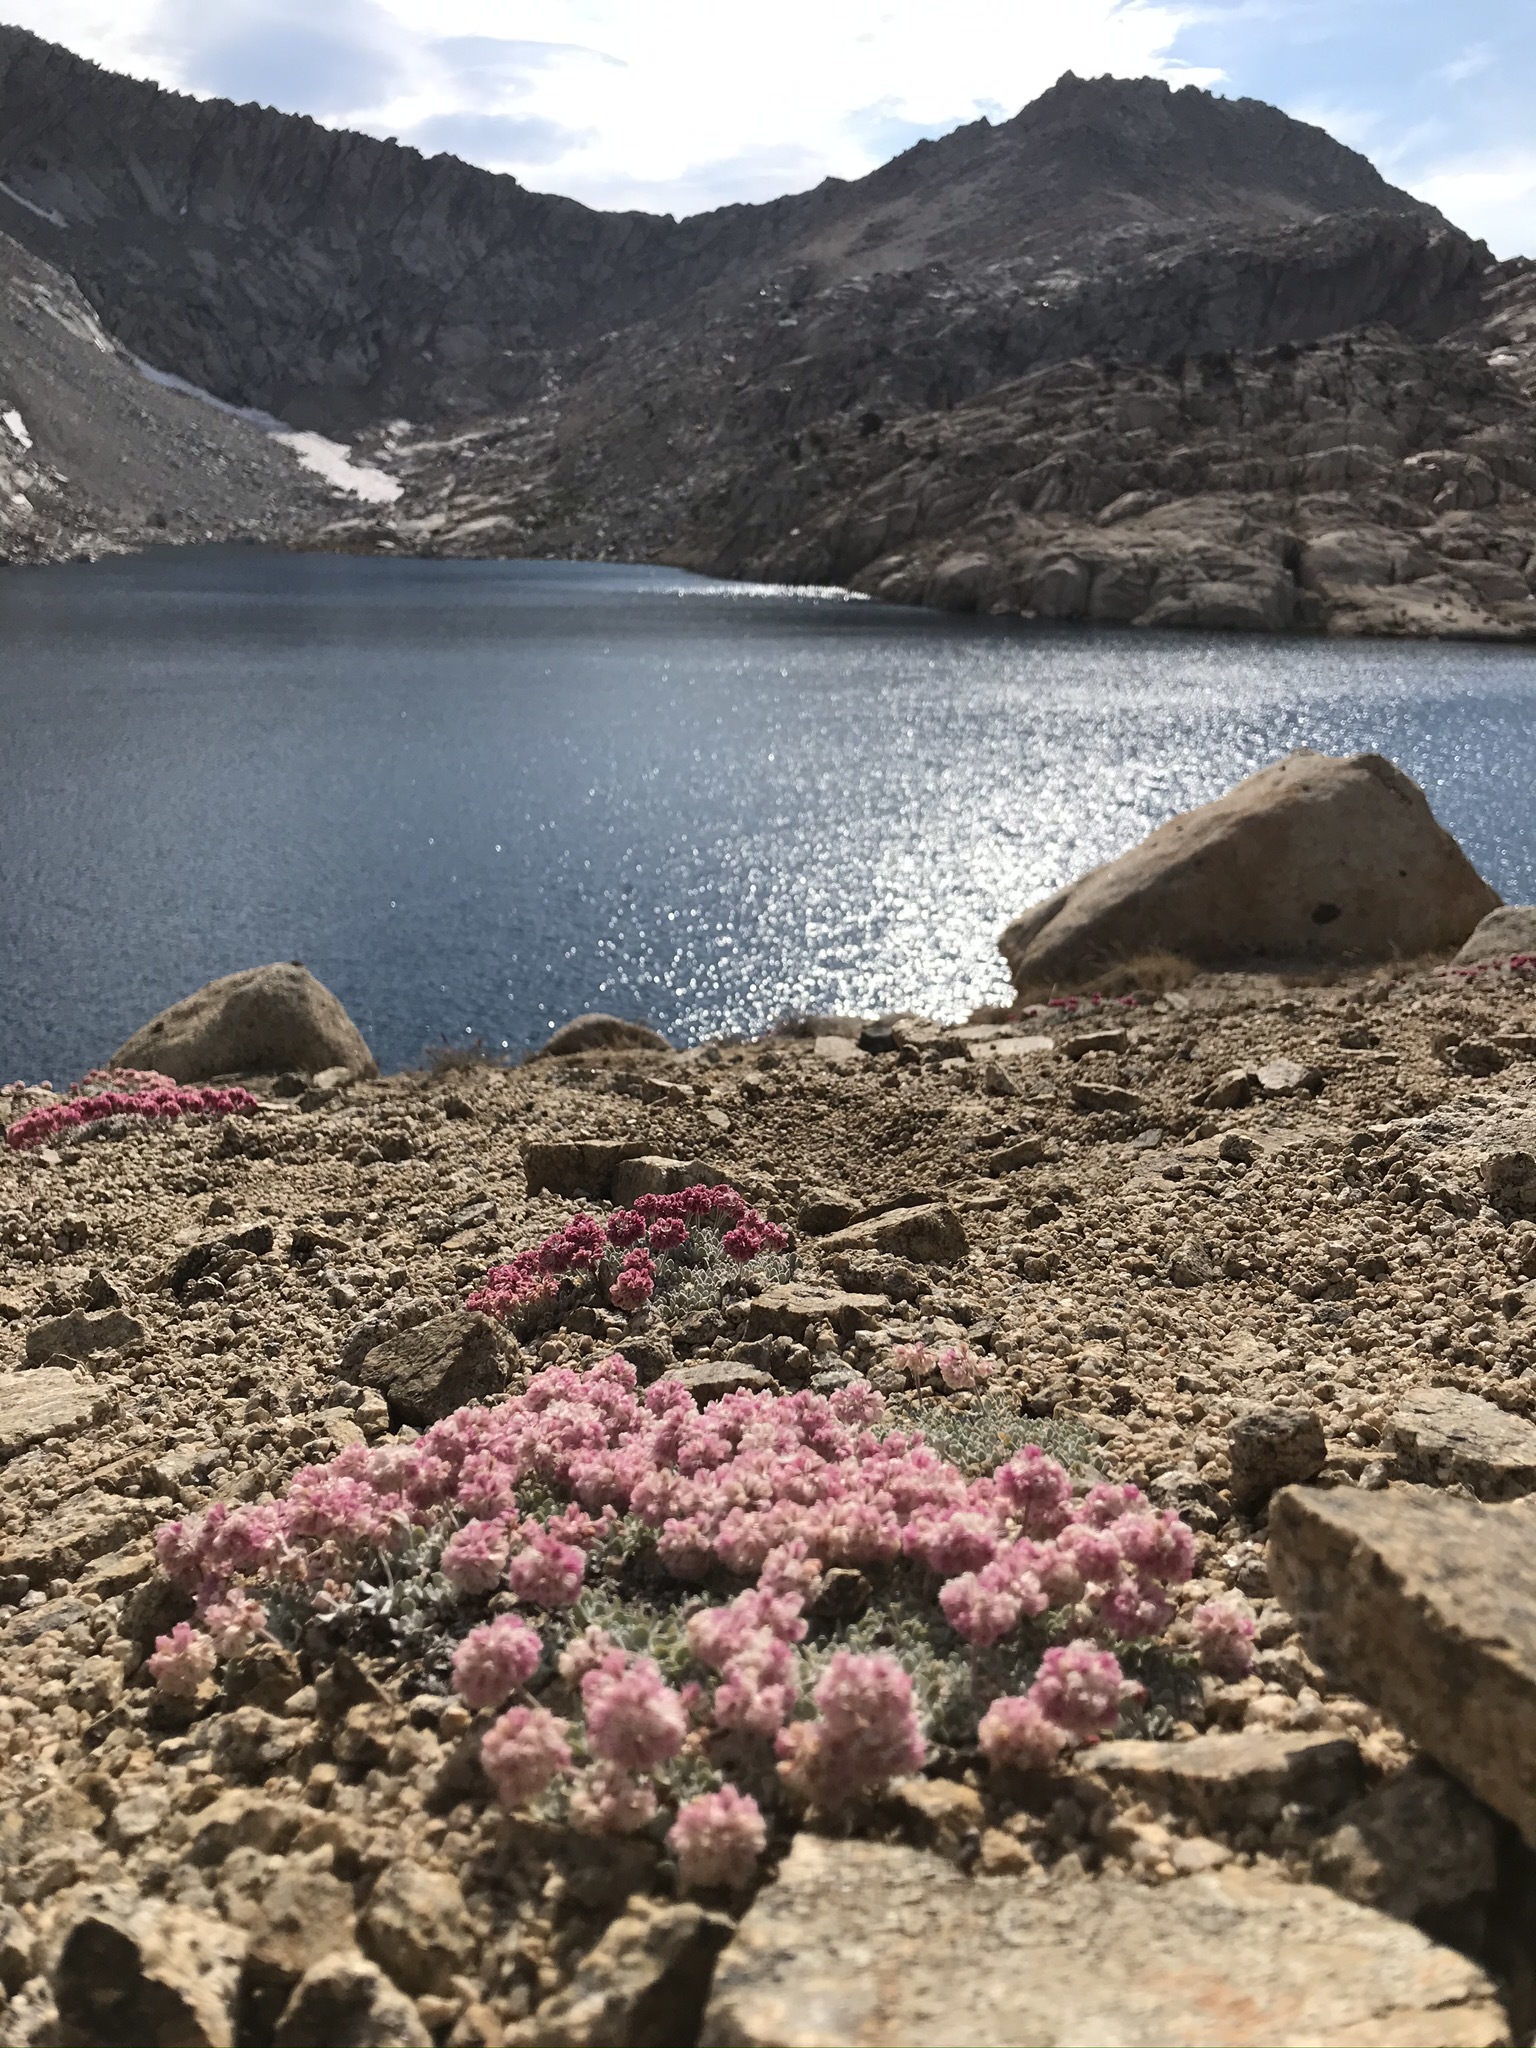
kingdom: Plantae
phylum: Tracheophyta
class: Magnoliopsida
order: Caryophyllales
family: Polygonaceae
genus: Eriogonum
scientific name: Eriogonum ovalifolium
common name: Cushion buckwheat
